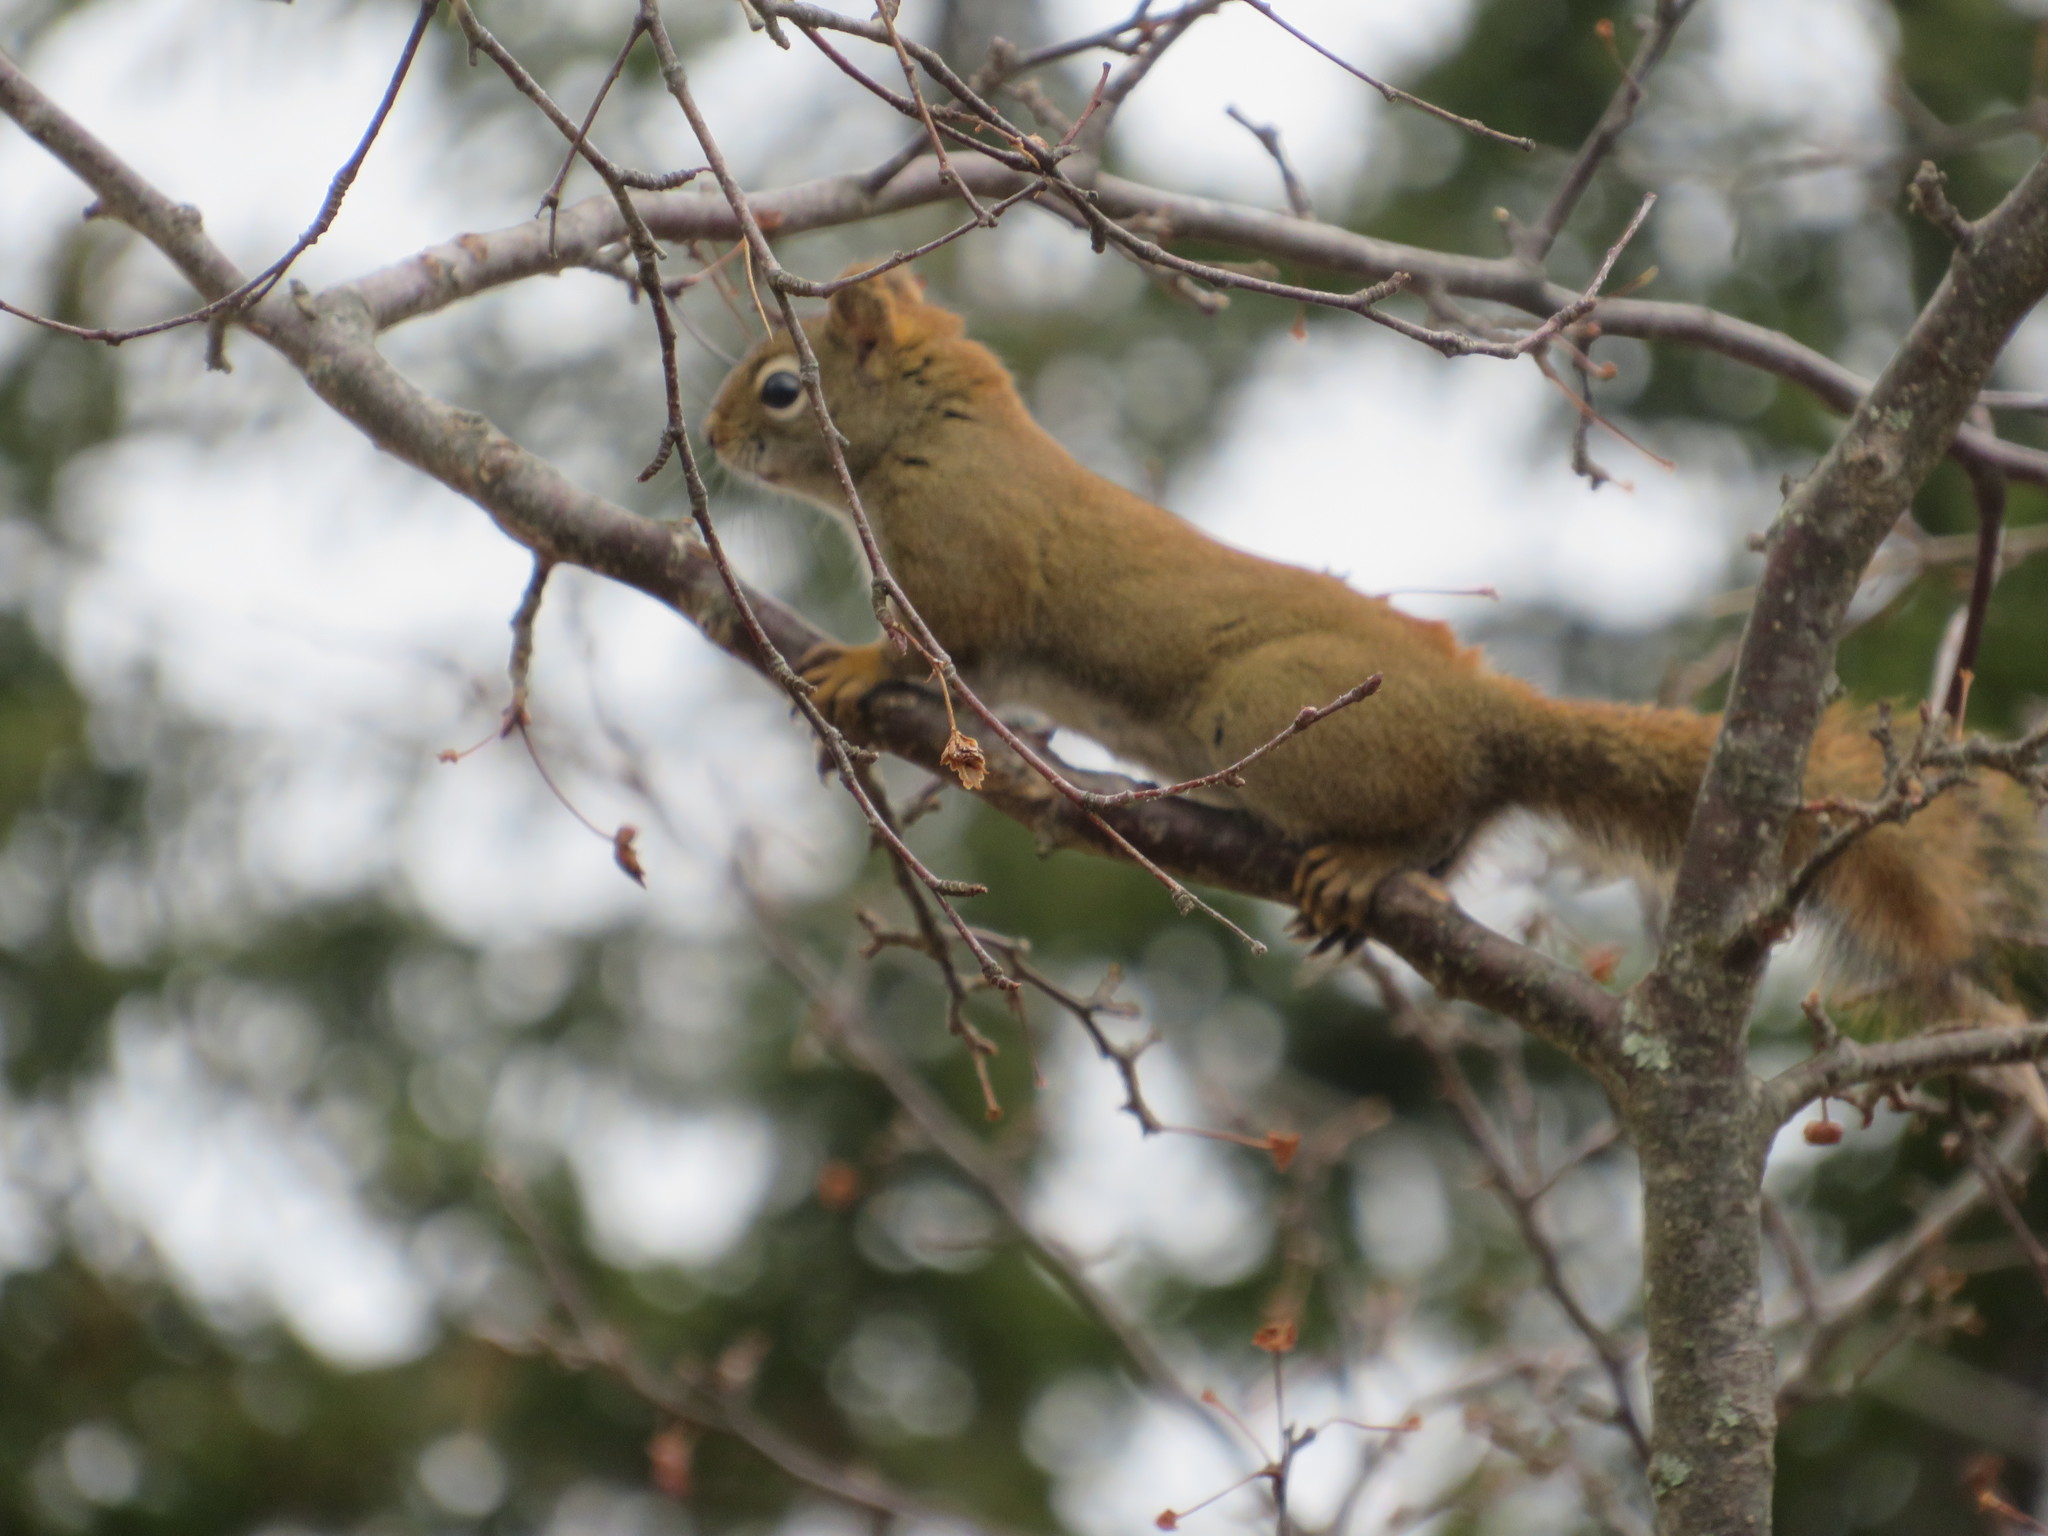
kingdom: Animalia
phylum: Chordata
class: Mammalia
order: Rodentia
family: Sciuridae
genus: Tamiasciurus
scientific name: Tamiasciurus hudsonicus
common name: Red squirrel
